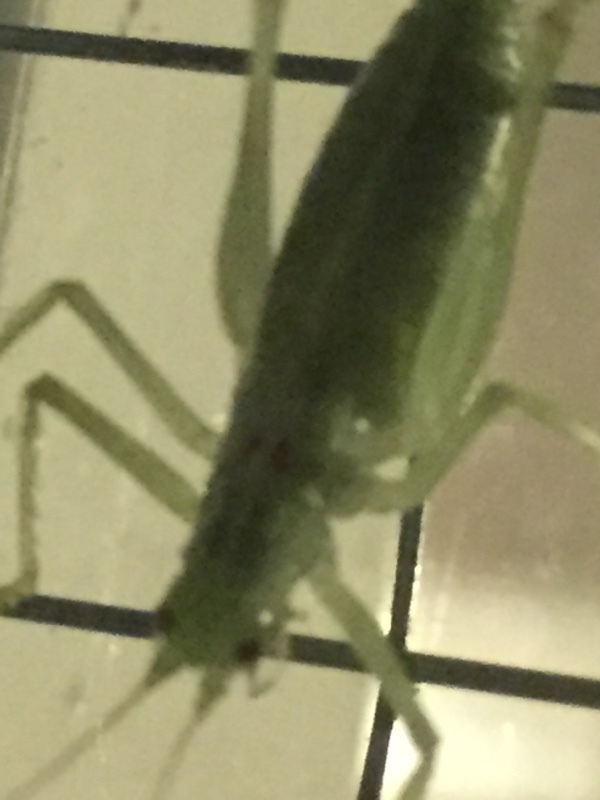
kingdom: Animalia
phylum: Arthropoda
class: Insecta
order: Orthoptera
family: Tettigoniidae
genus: Meconema
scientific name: Meconema meridionale
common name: Southern oak bush-cricket
